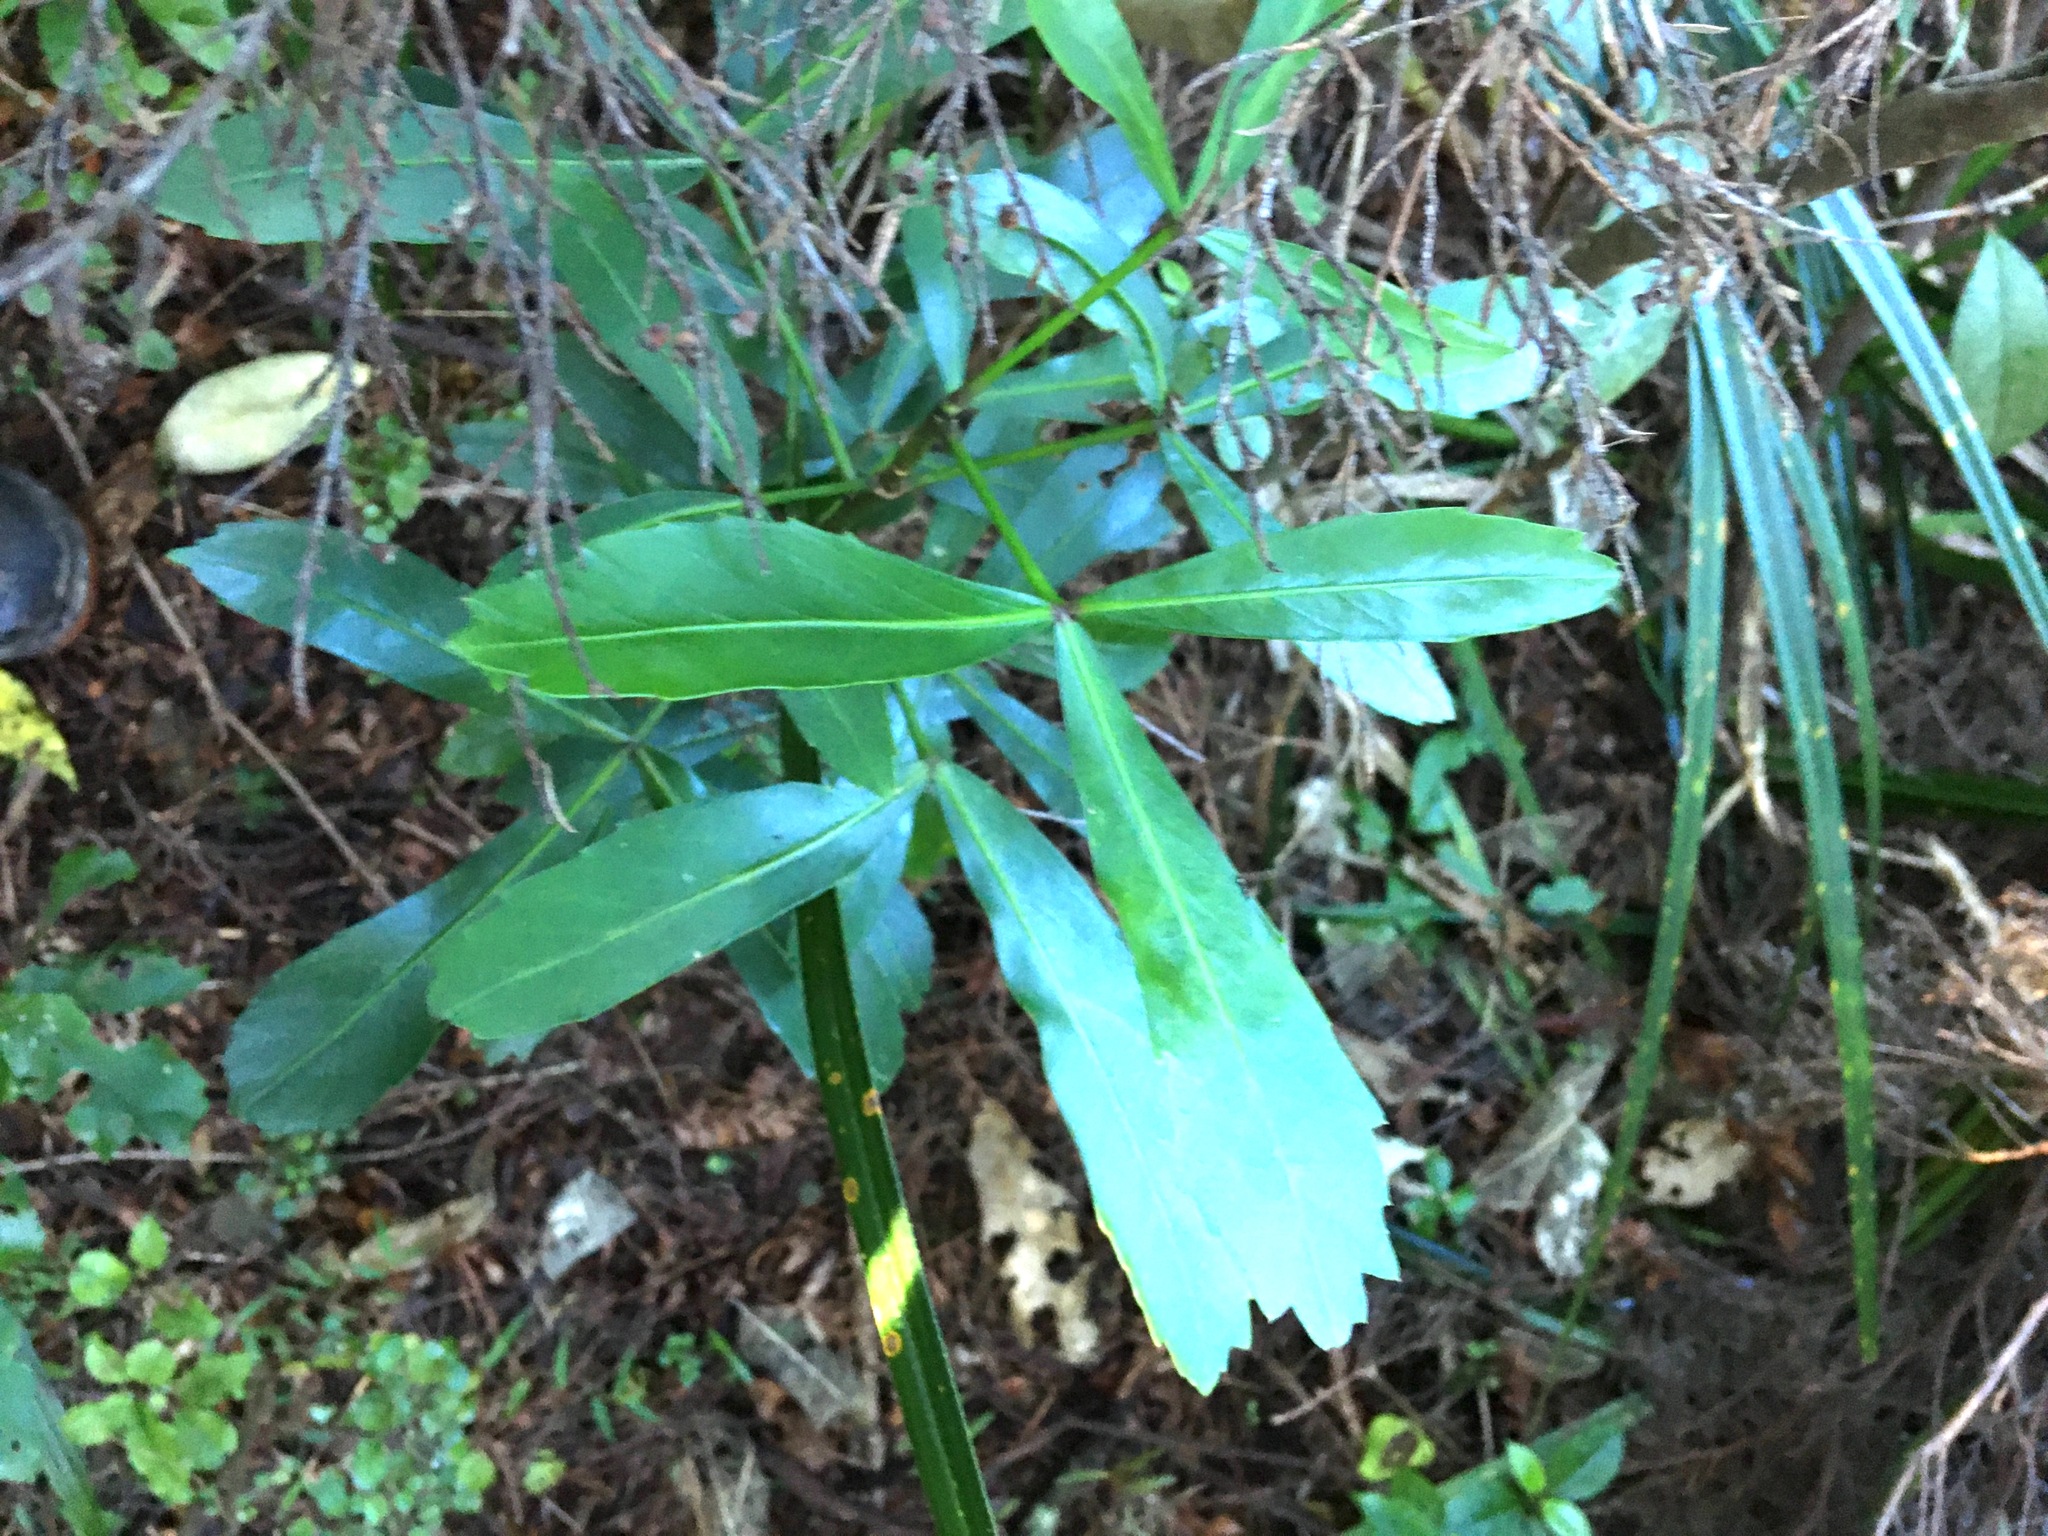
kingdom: Plantae
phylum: Tracheophyta
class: Magnoliopsida
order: Apiales
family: Araliaceae
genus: Pseudopanax
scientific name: Pseudopanax
